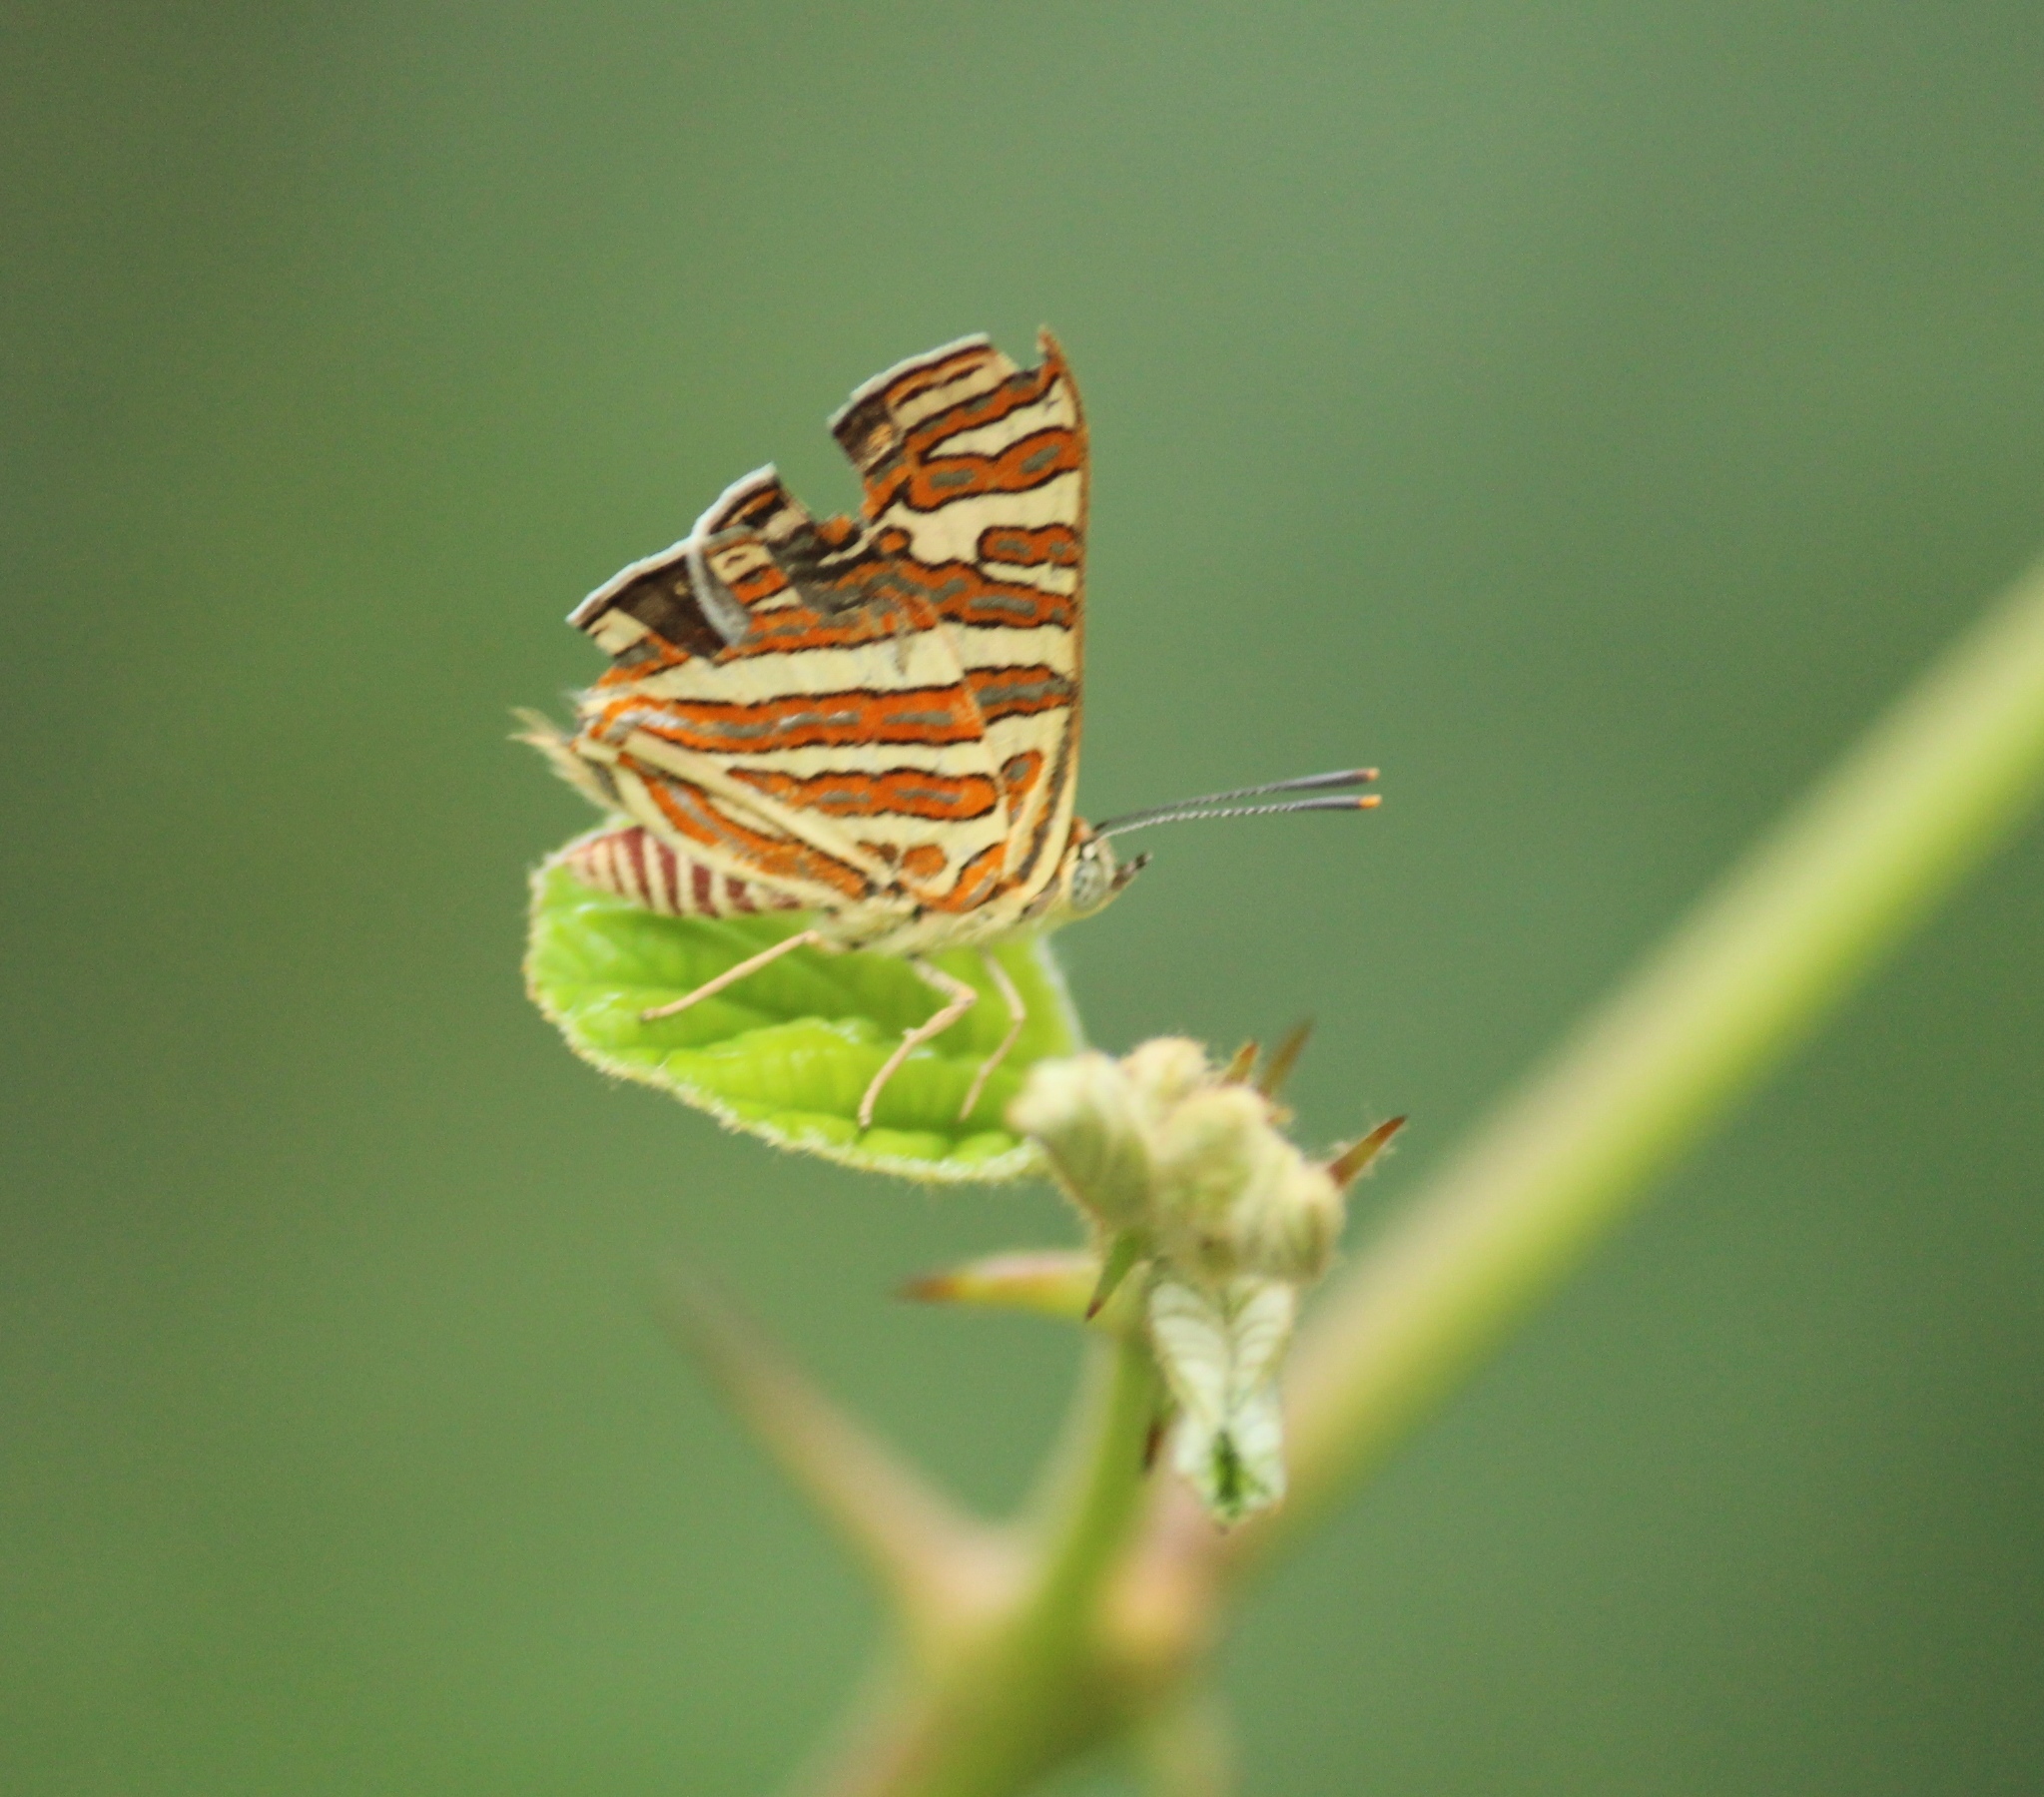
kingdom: Animalia
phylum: Arthropoda
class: Insecta
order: Lepidoptera
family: Lycaenidae
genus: Cigaritis
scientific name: Cigaritis vulcanus
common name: Common silverline
